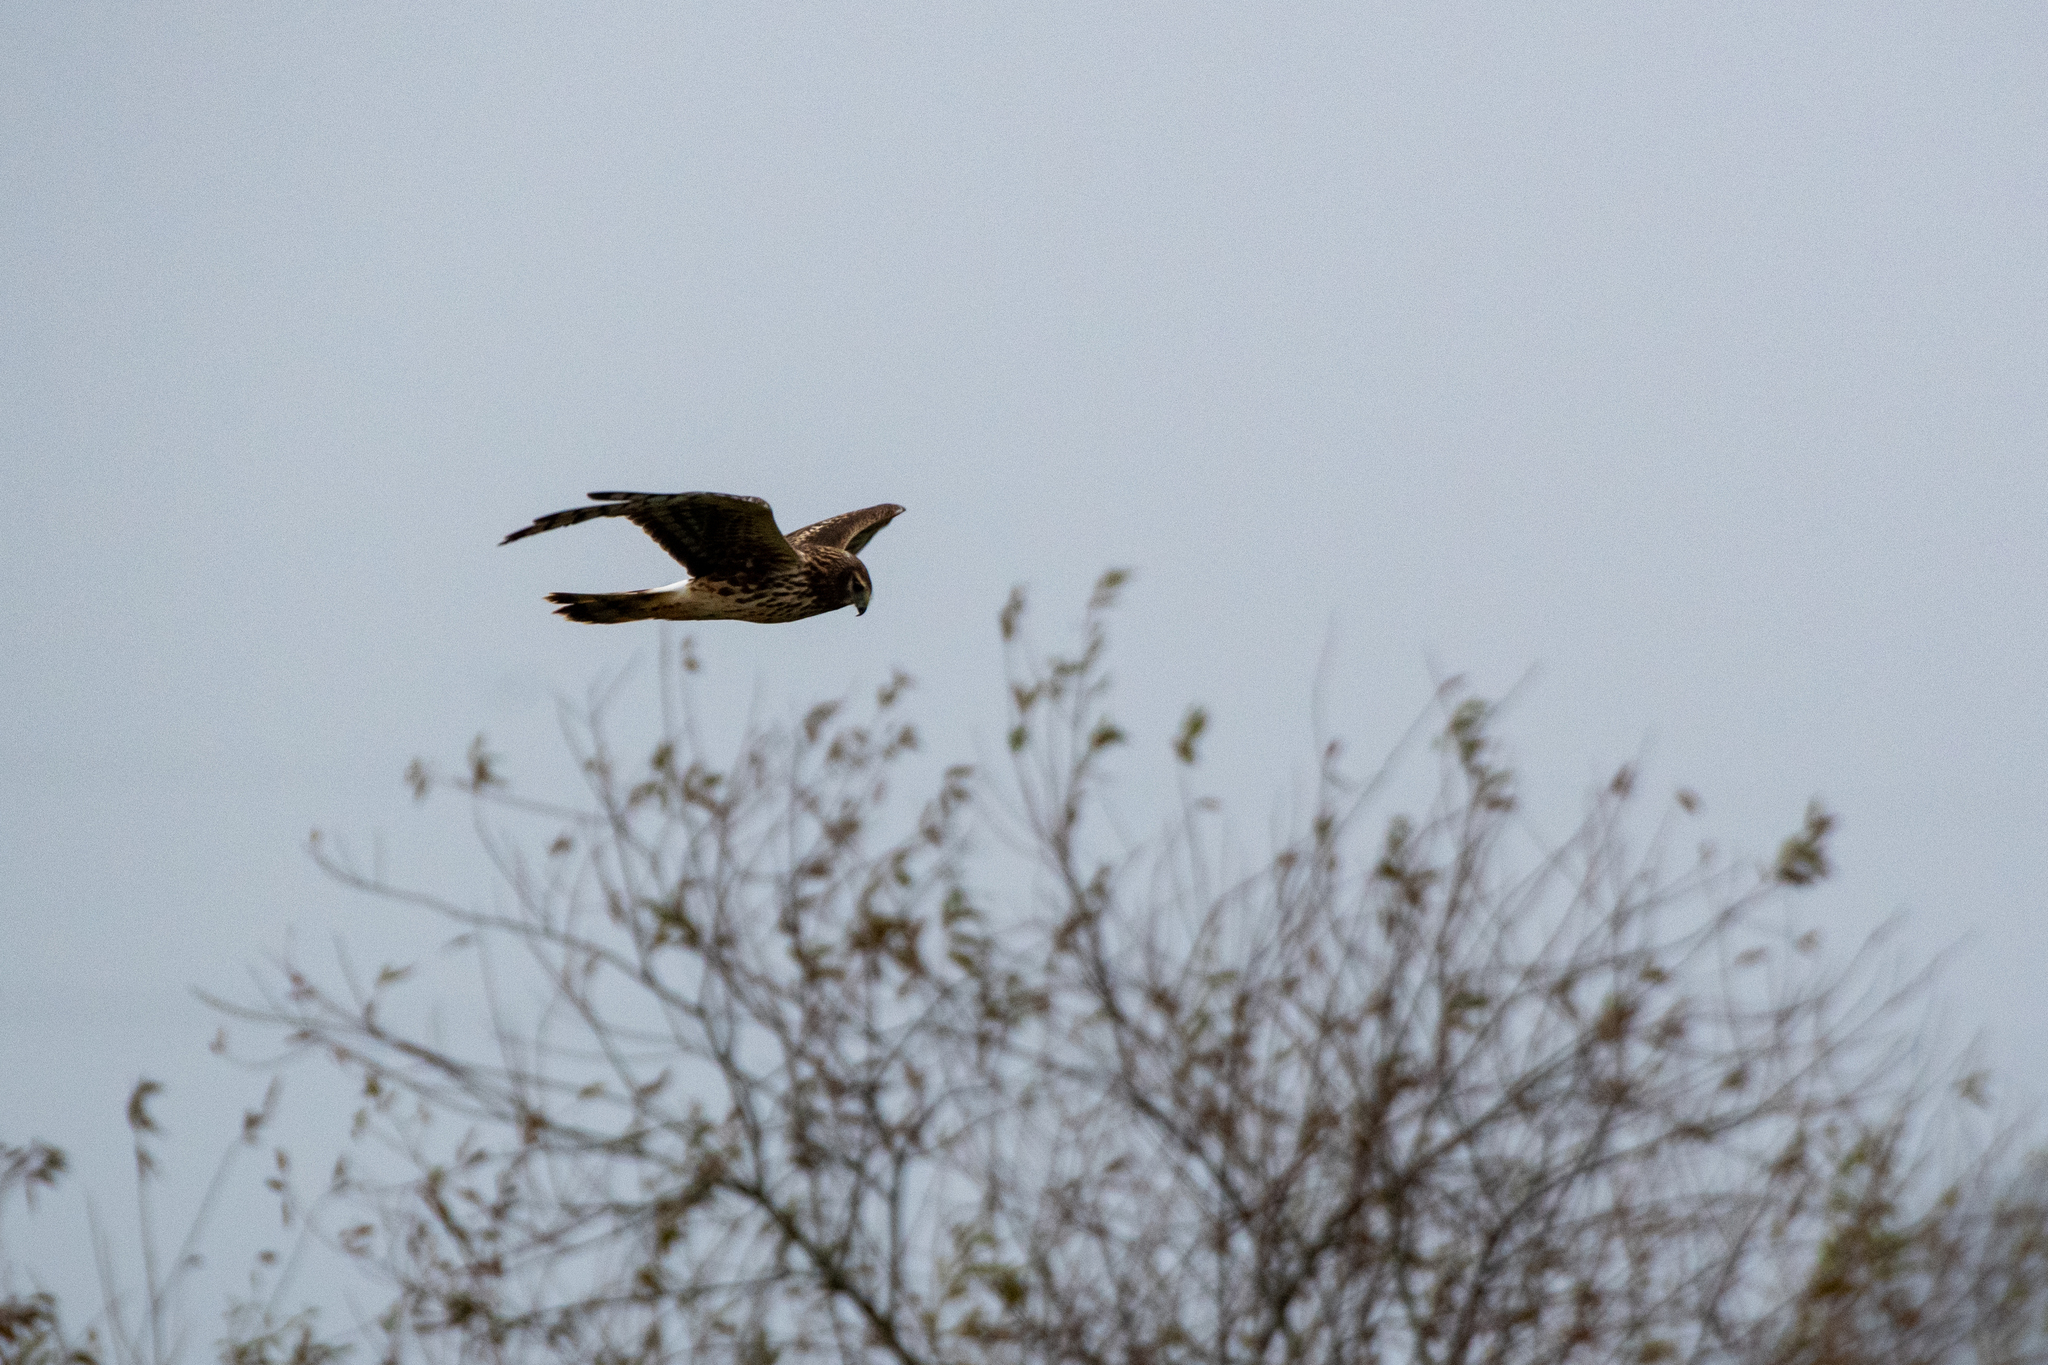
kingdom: Animalia
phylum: Chordata
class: Aves
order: Accipitriformes
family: Accipitridae
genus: Circus
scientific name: Circus cyaneus
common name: Hen harrier
